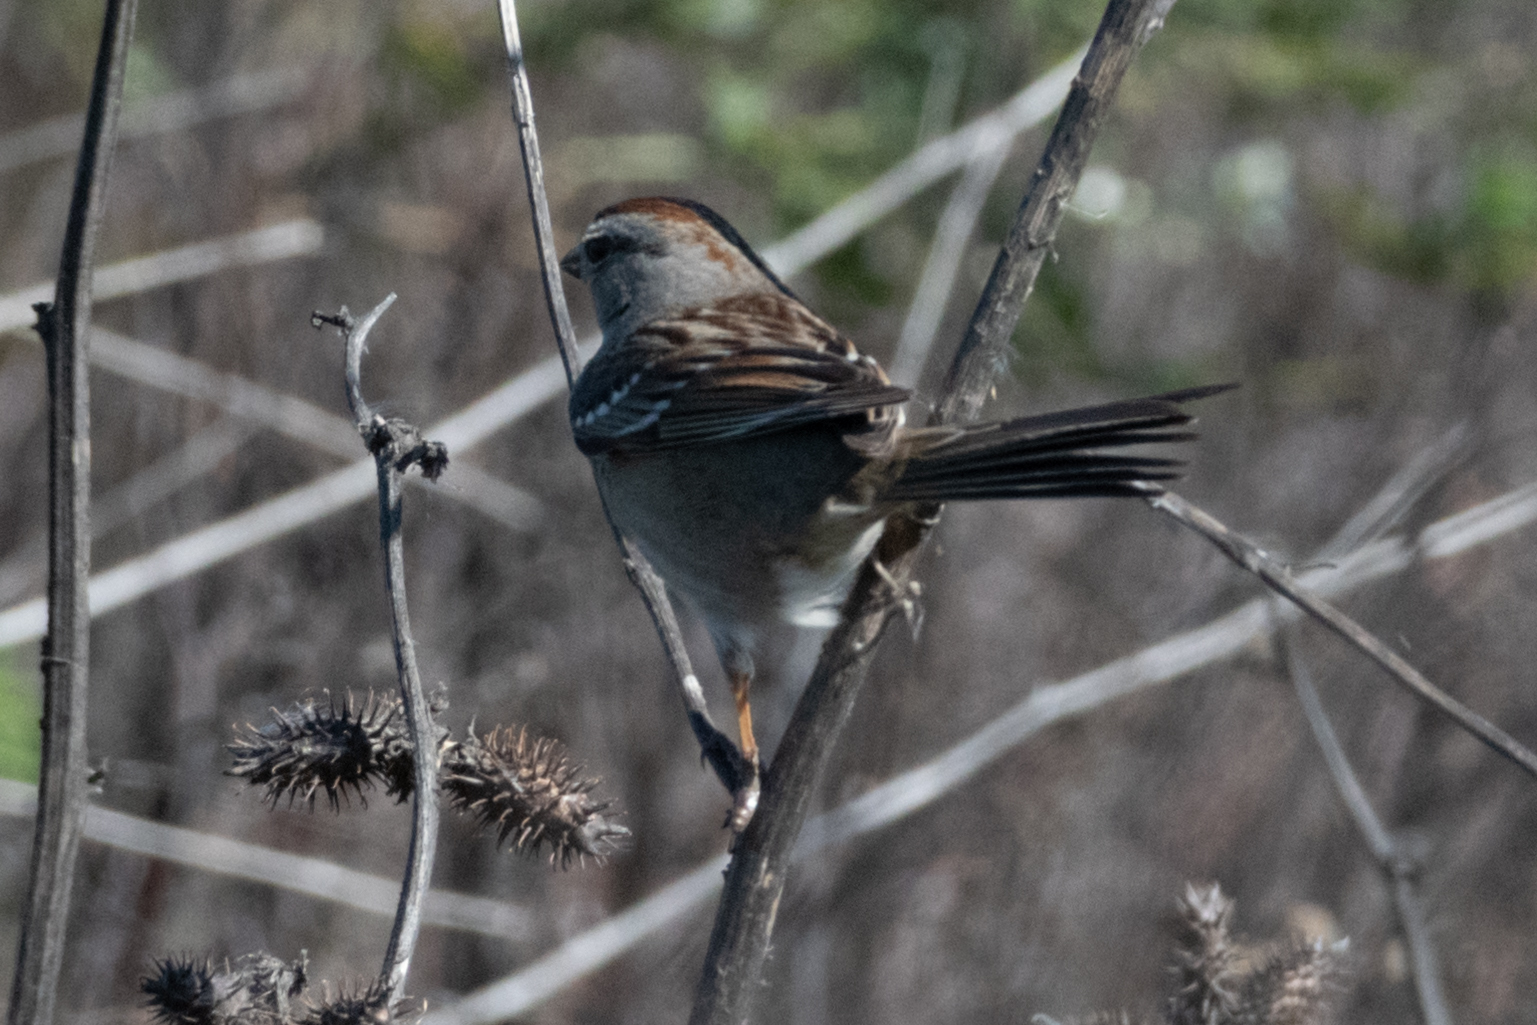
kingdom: Animalia
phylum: Chordata
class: Aves
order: Passeriformes
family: Passerellidae
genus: Zonotrichia
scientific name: Zonotrichia leucophrys
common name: White-crowned sparrow
